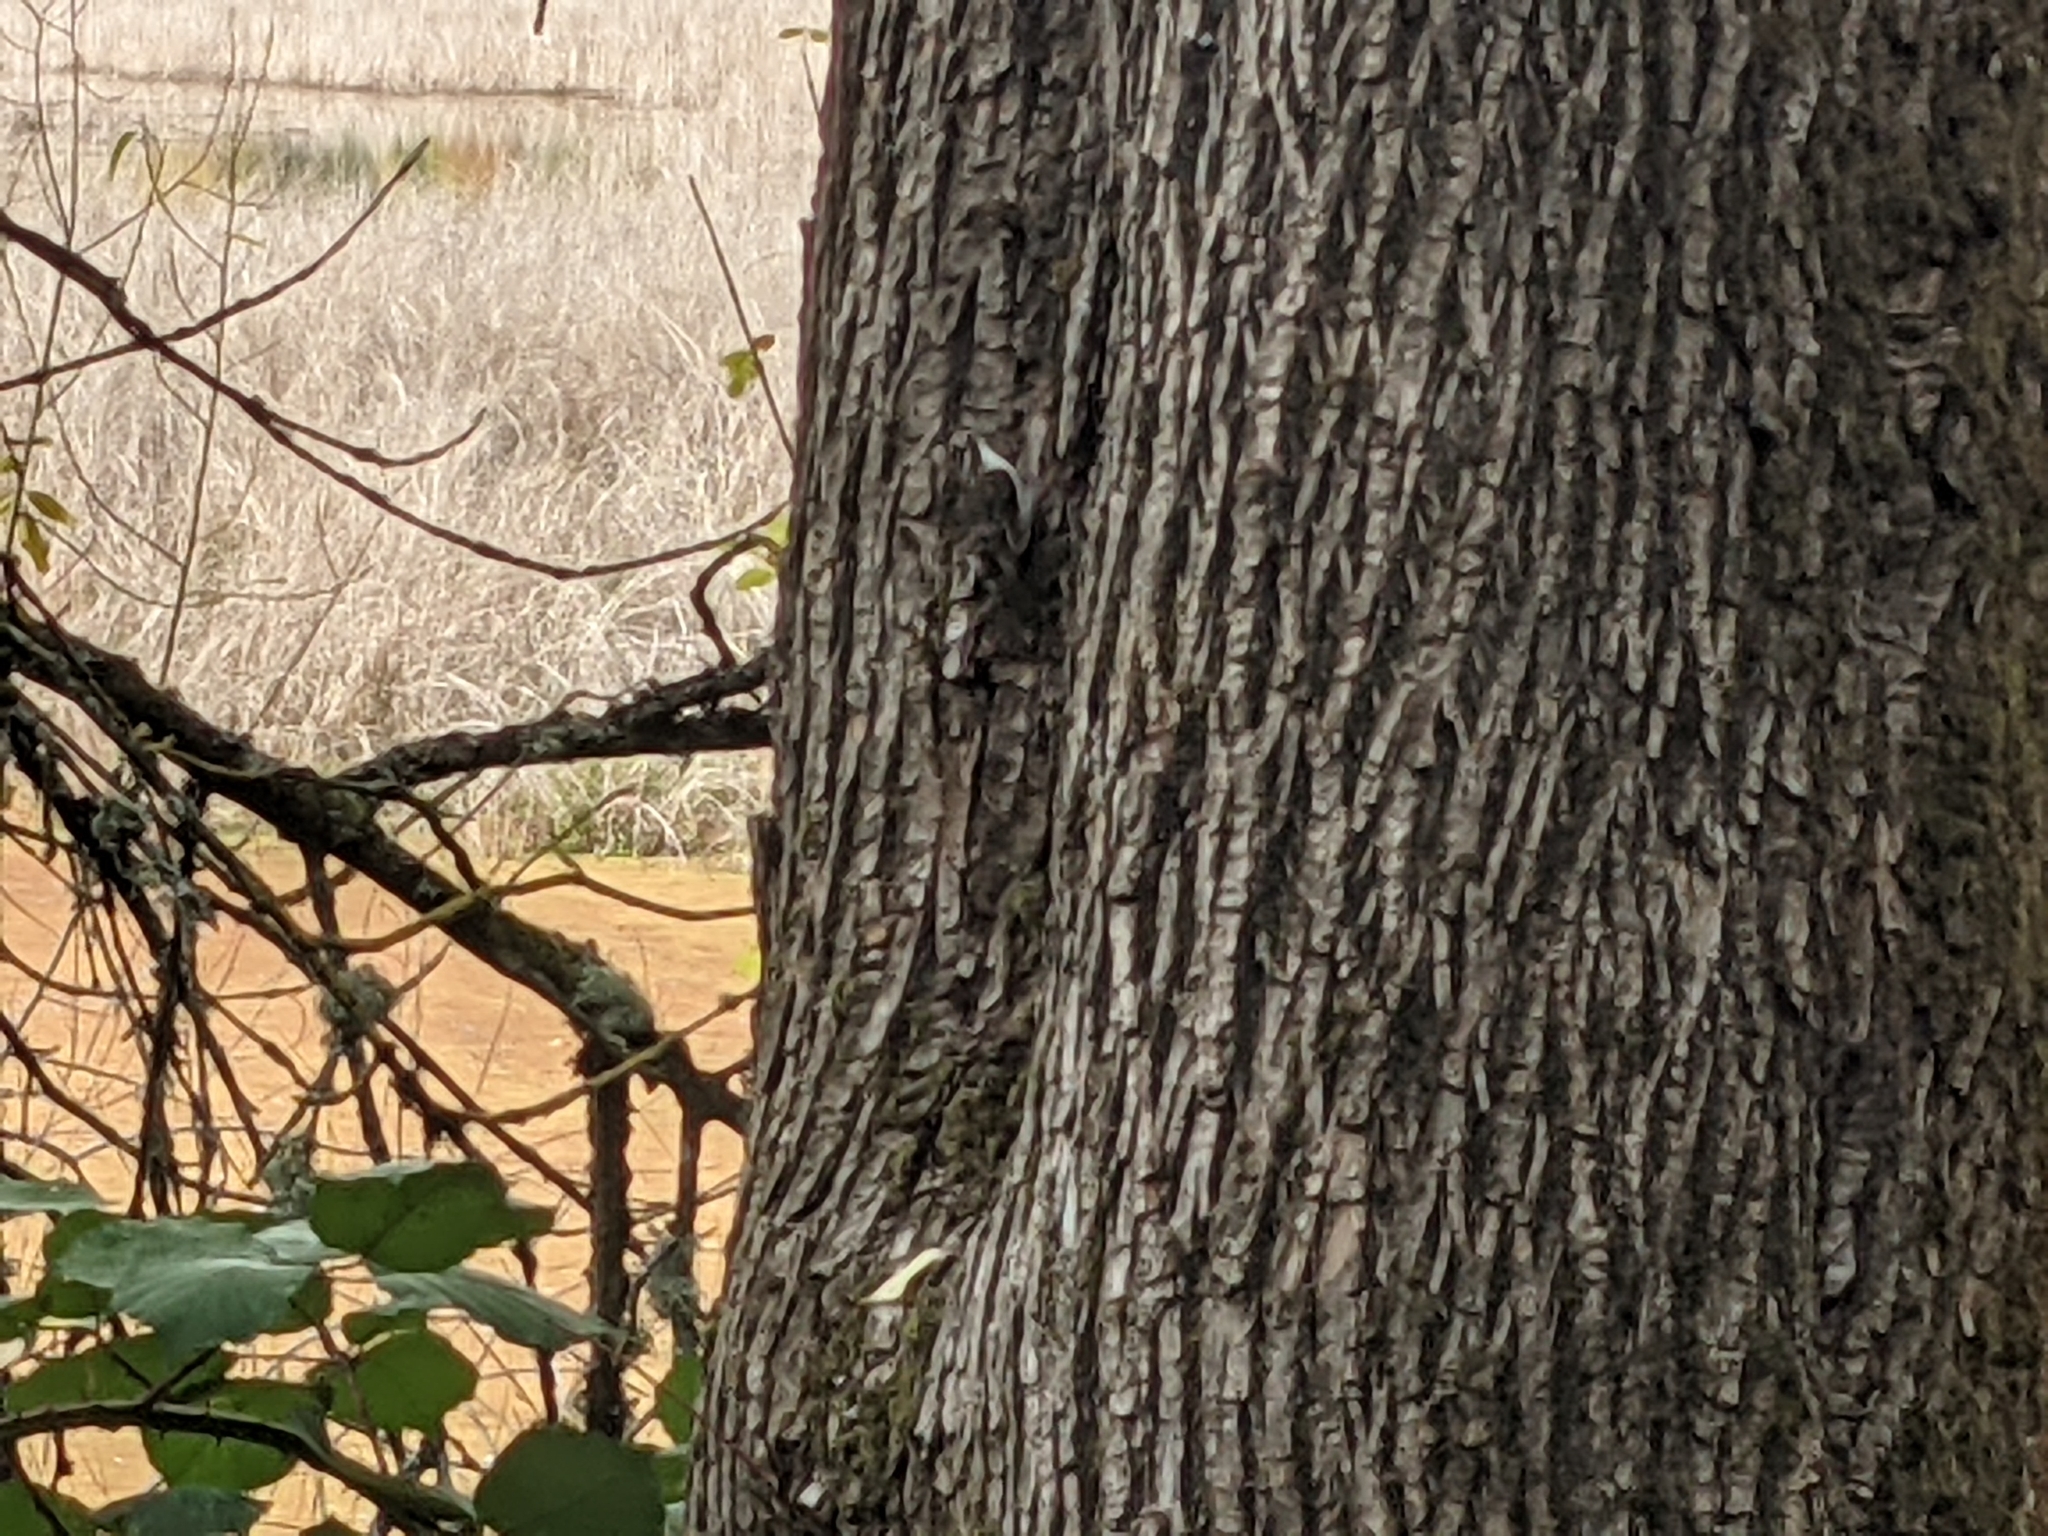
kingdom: Animalia
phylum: Chordata
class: Aves
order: Passeriformes
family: Certhiidae
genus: Certhia
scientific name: Certhia americana
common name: Brown creeper
